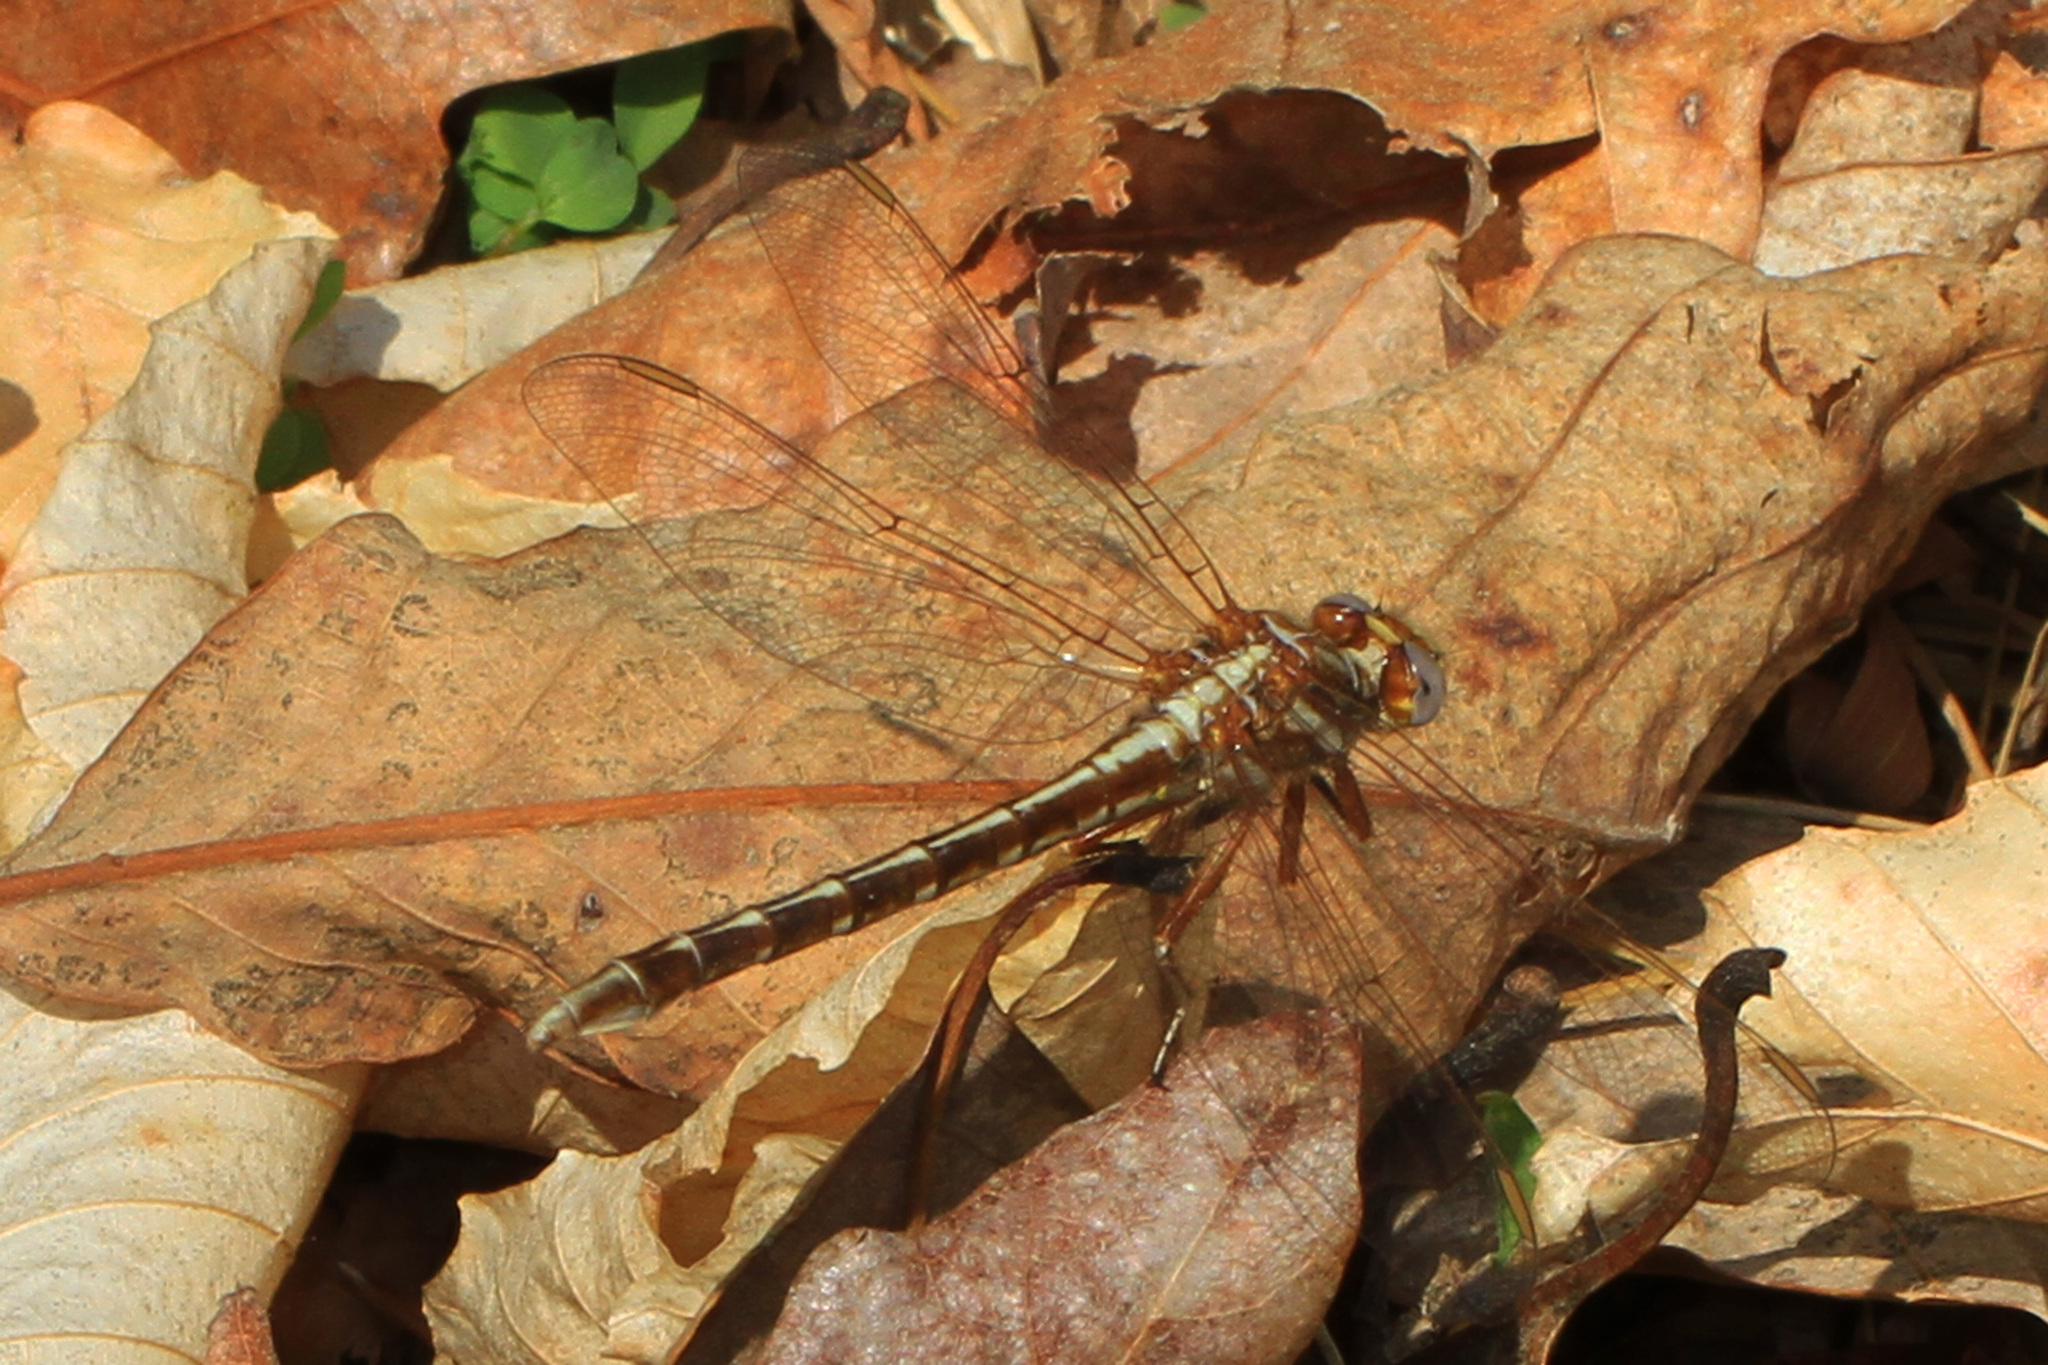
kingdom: Animalia
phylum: Arthropoda
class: Insecta
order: Odonata
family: Gomphidae
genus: Phanogomphus
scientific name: Phanogomphus lividus
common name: Ashy clubtail
